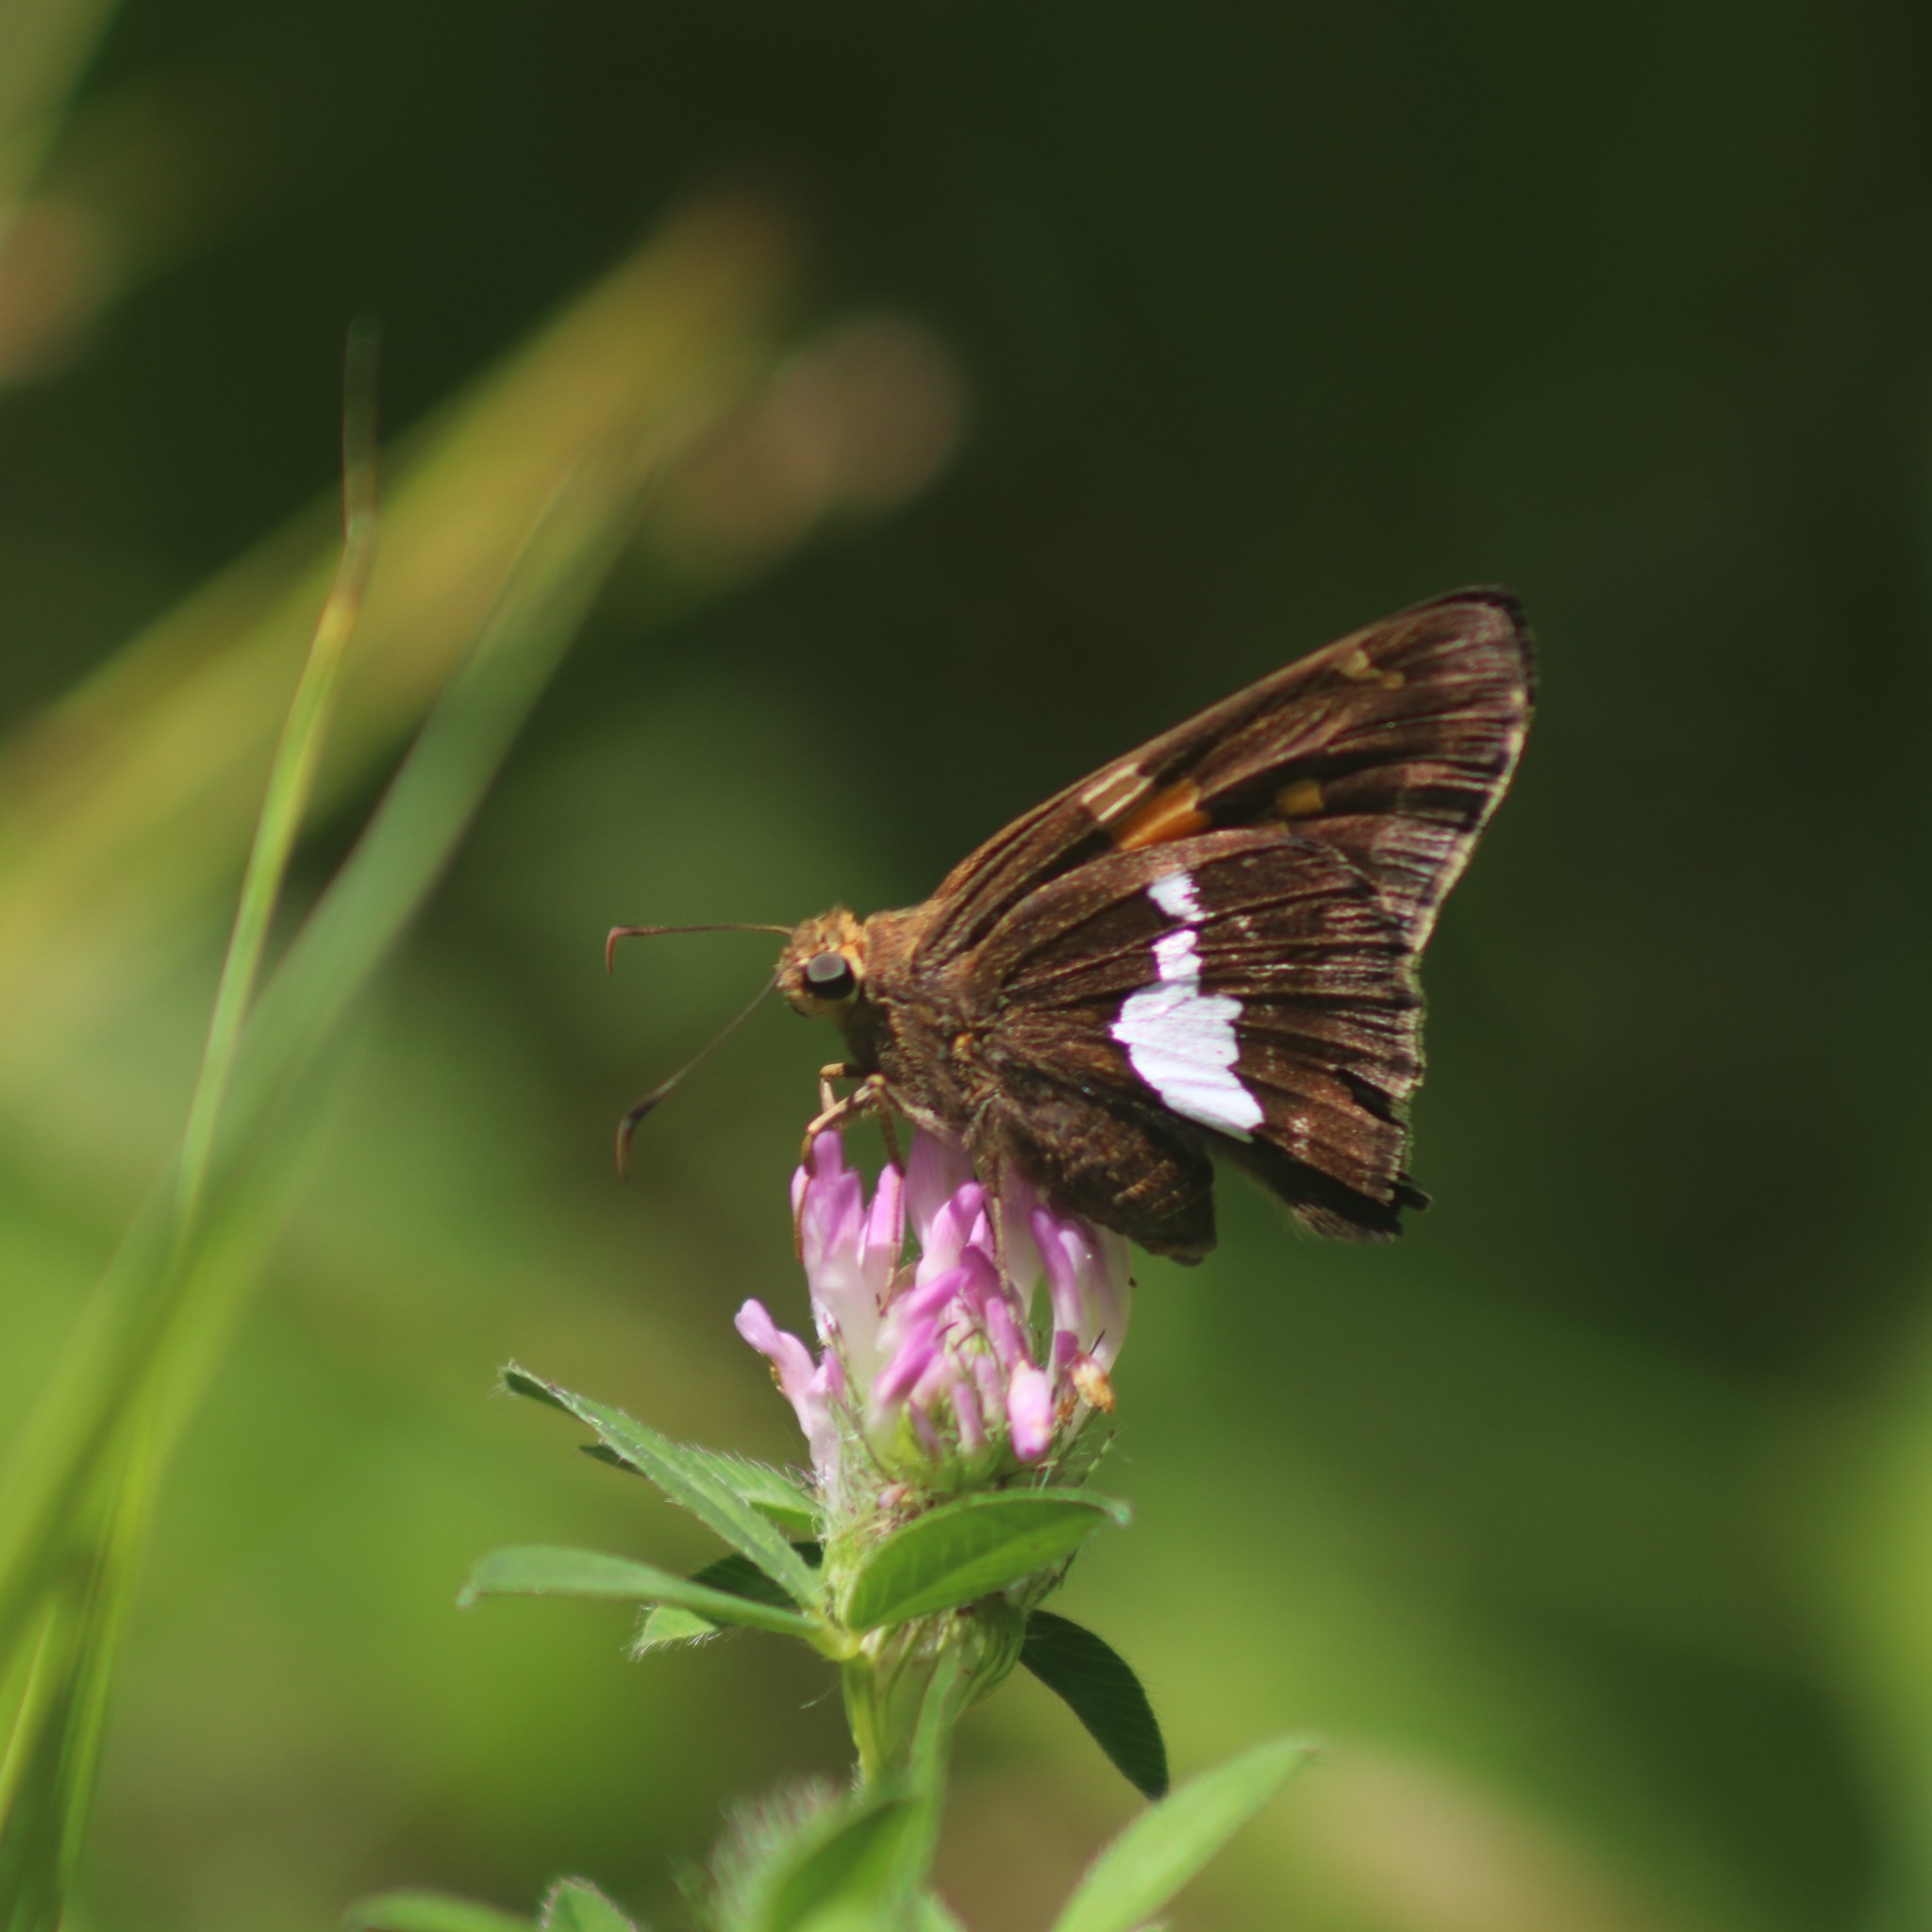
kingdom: Animalia
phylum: Arthropoda
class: Insecta
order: Lepidoptera
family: Hesperiidae
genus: Epargyreus
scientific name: Epargyreus clarus
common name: Silver-spotted skipper
